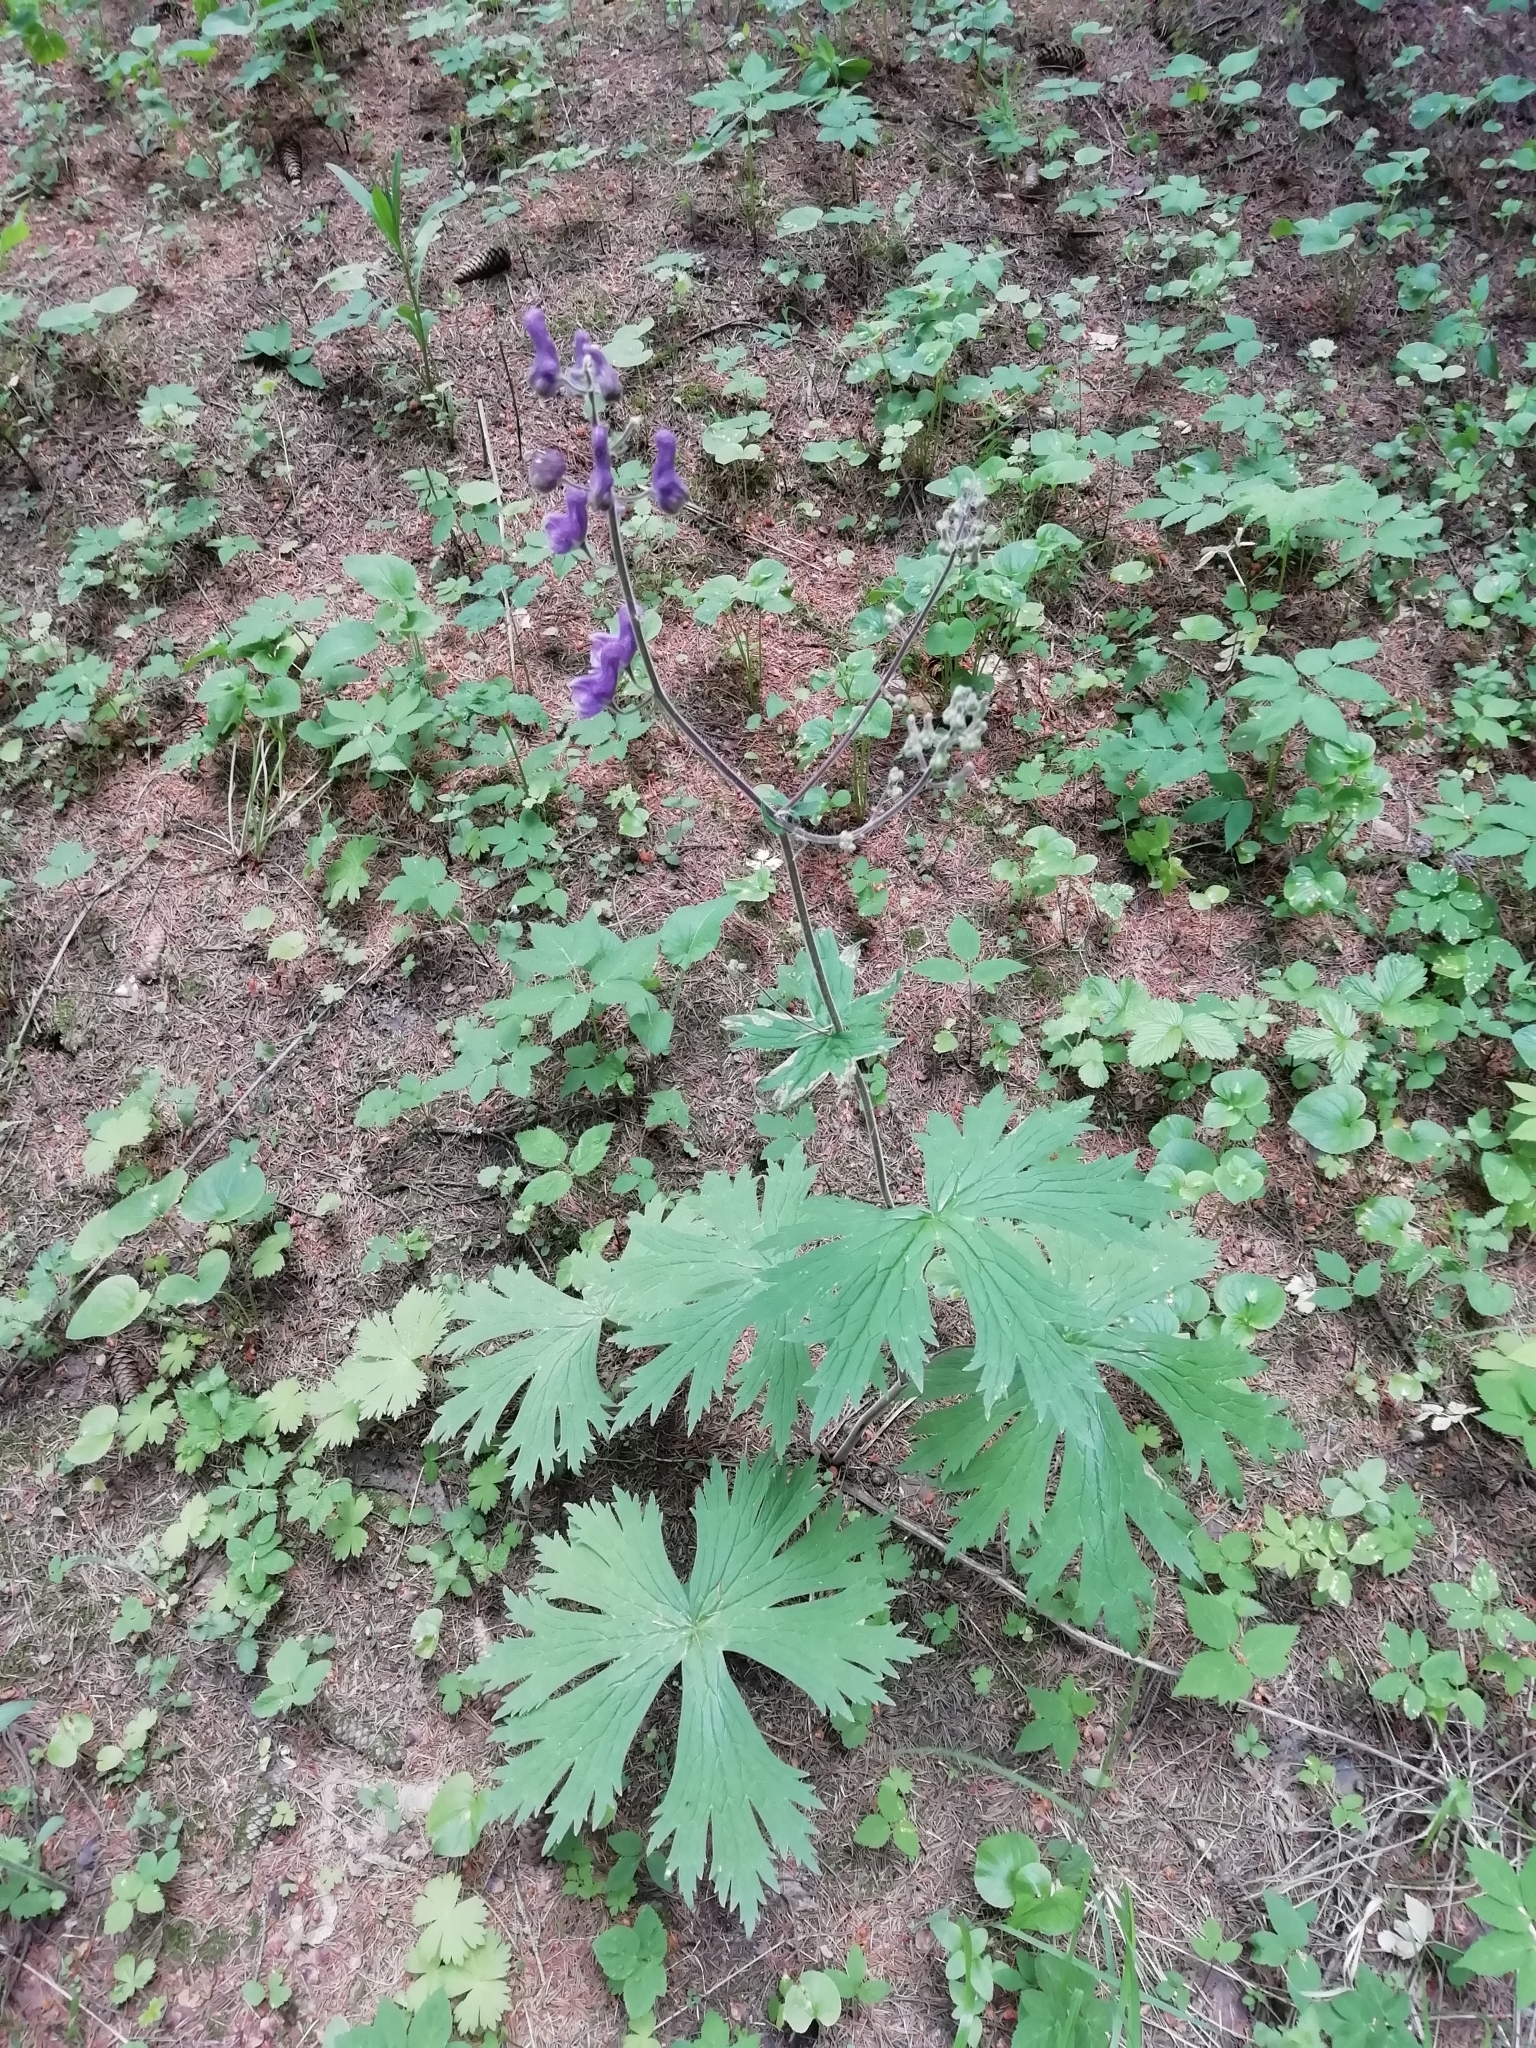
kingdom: Plantae
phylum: Tracheophyta
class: Magnoliopsida
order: Ranunculales
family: Ranunculaceae
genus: Aconitum
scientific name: Aconitum septentrionale
